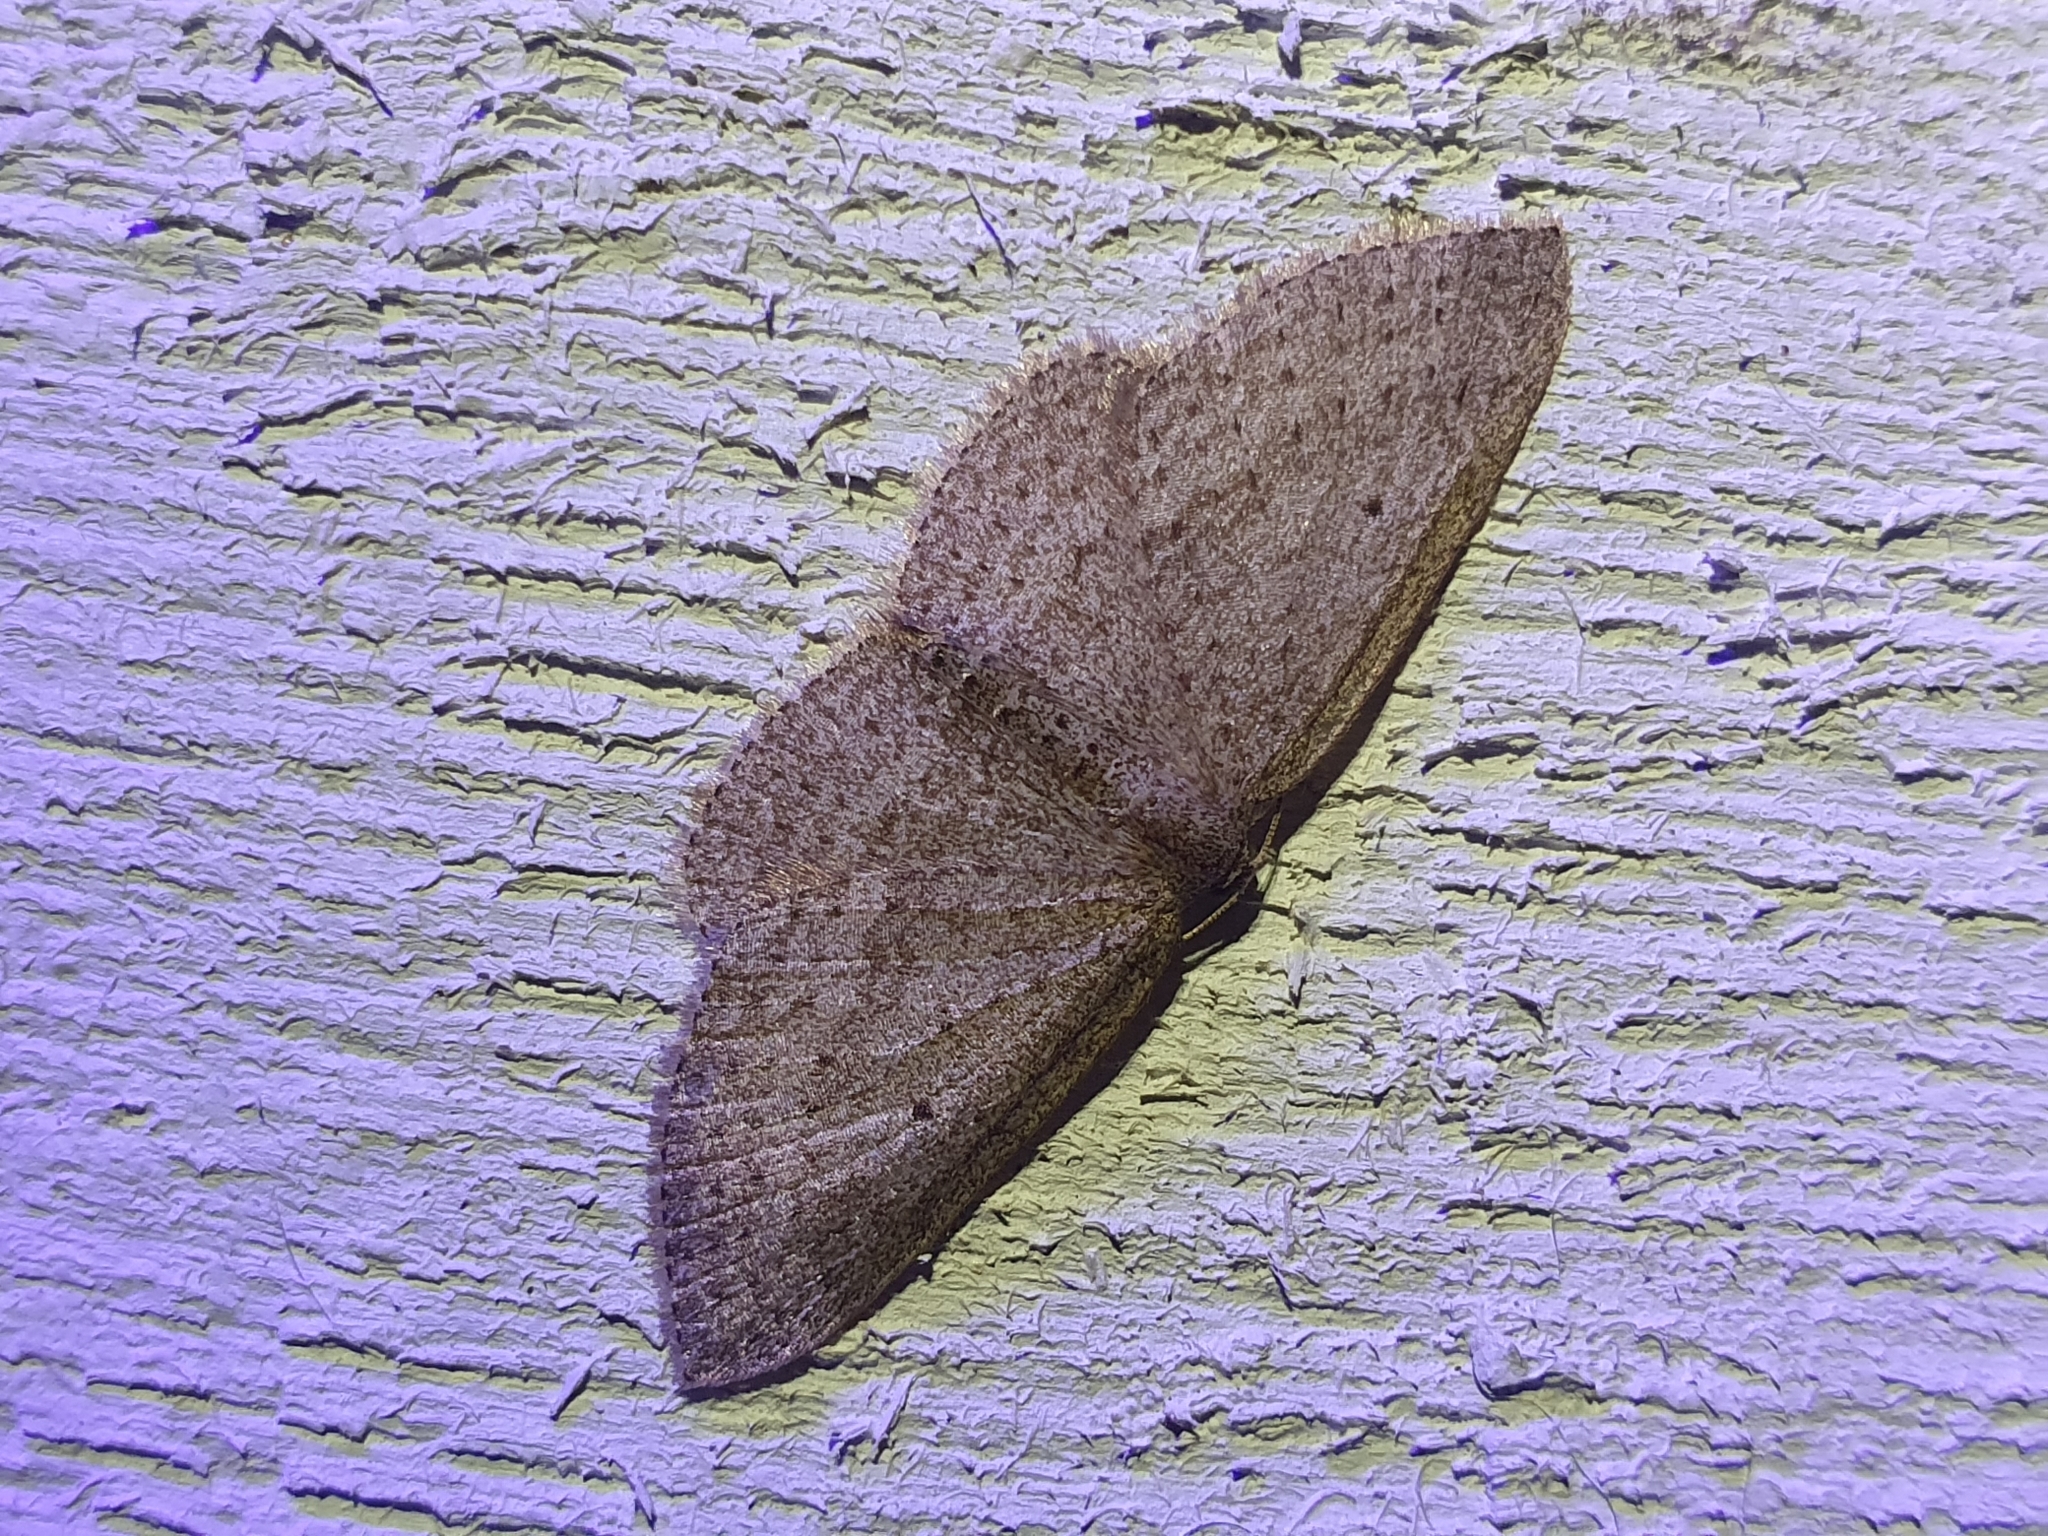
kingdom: Animalia
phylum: Arthropoda
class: Insecta
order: Lepidoptera
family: Geometridae
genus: Poecilasthena
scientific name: Poecilasthena schistaria
